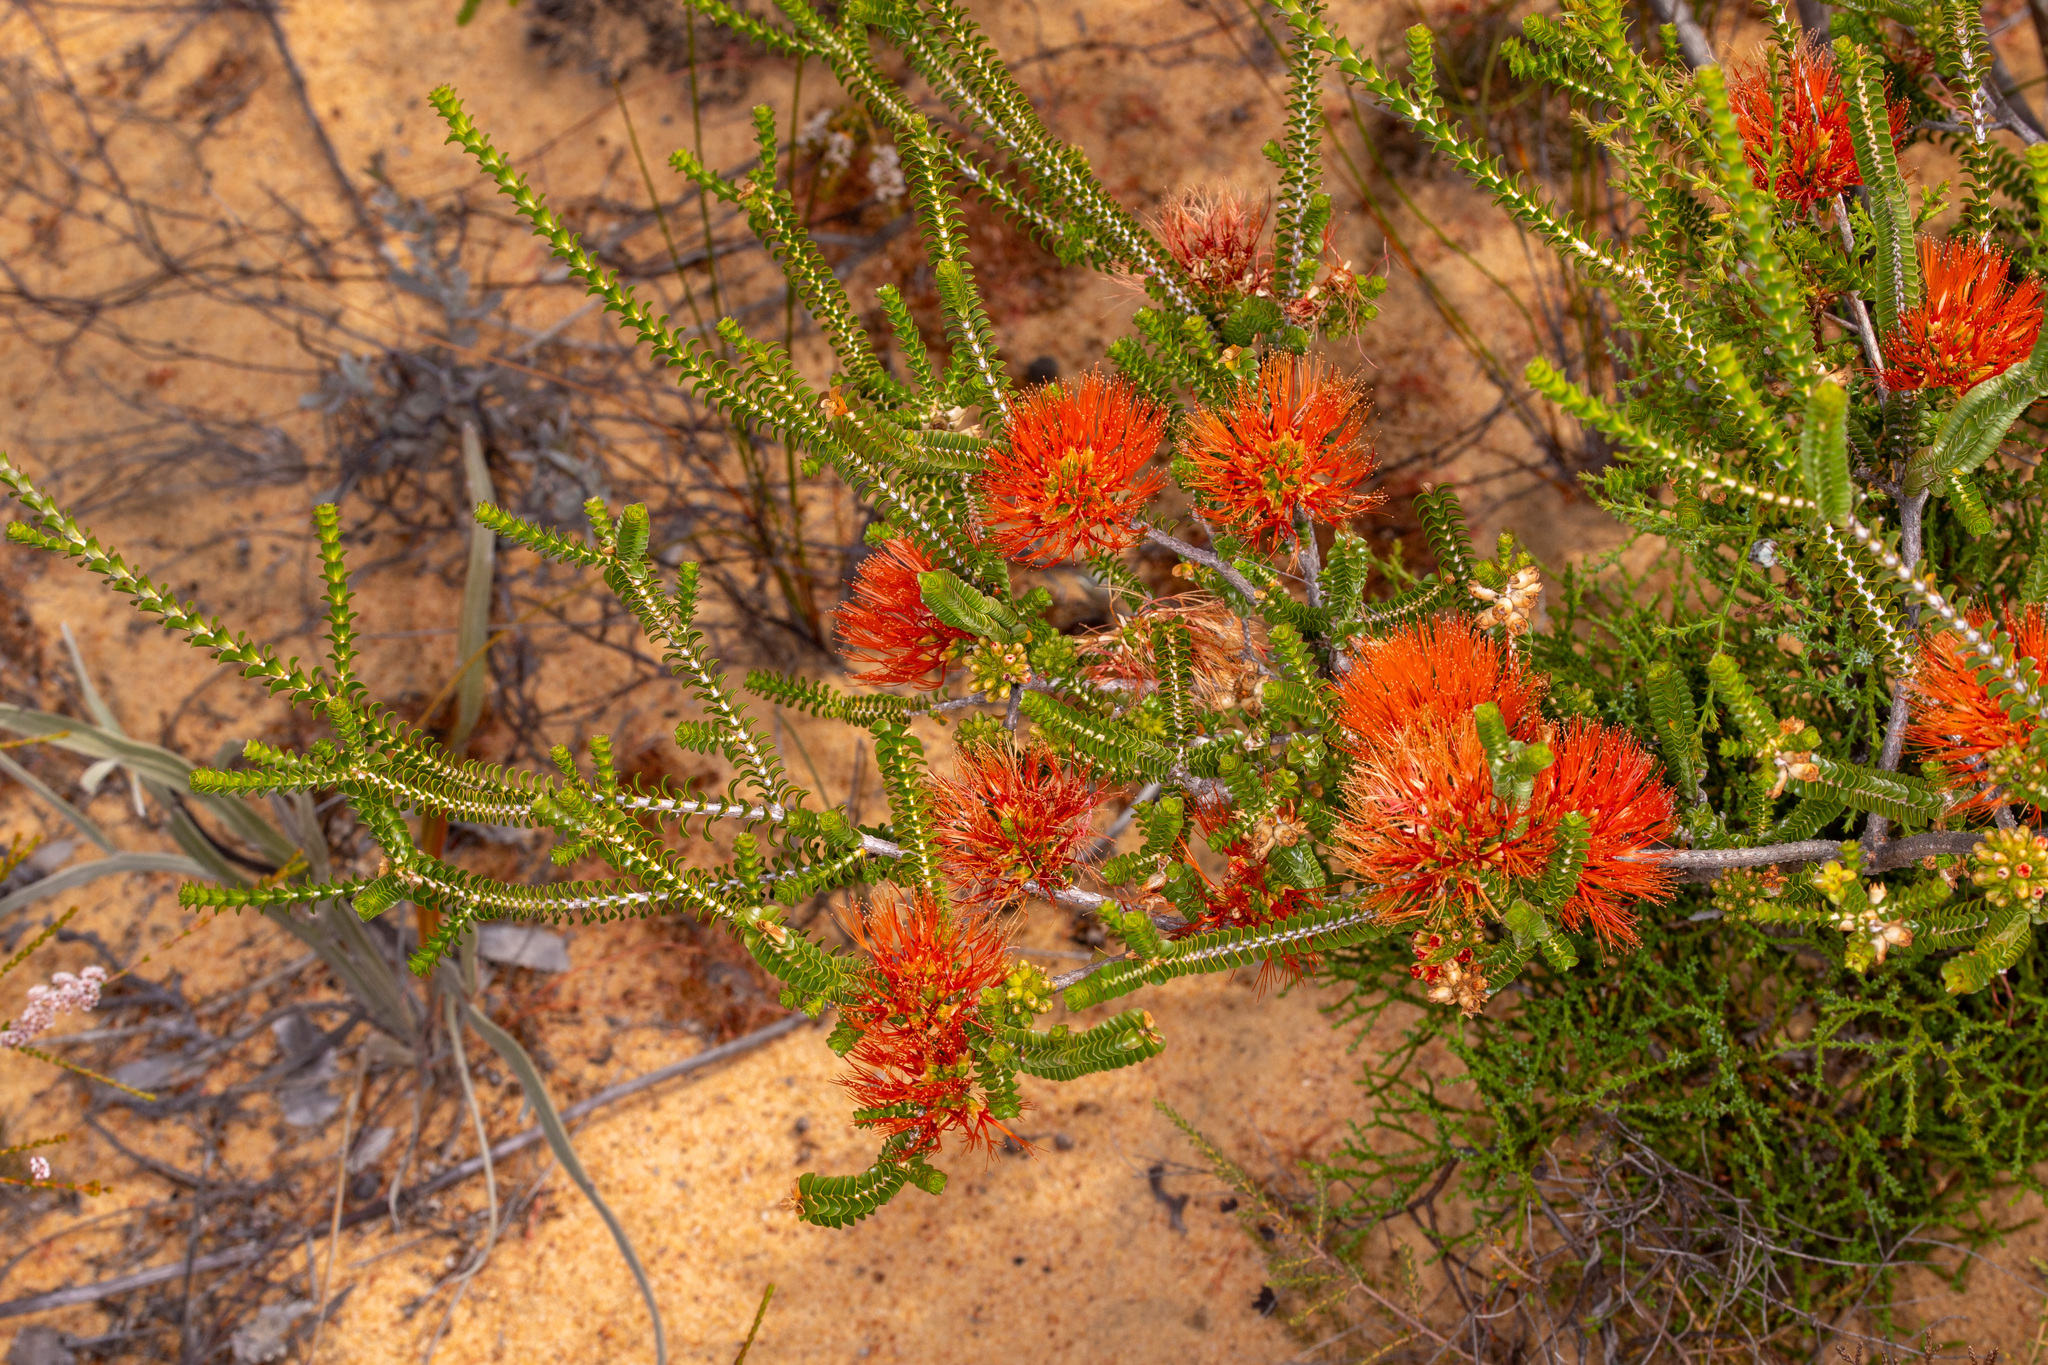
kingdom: Plantae
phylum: Tracheophyta
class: Magnoliopsida
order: Myrtales
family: Myrtaceae
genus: Melaleuca
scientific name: Melaleuca aestiva
